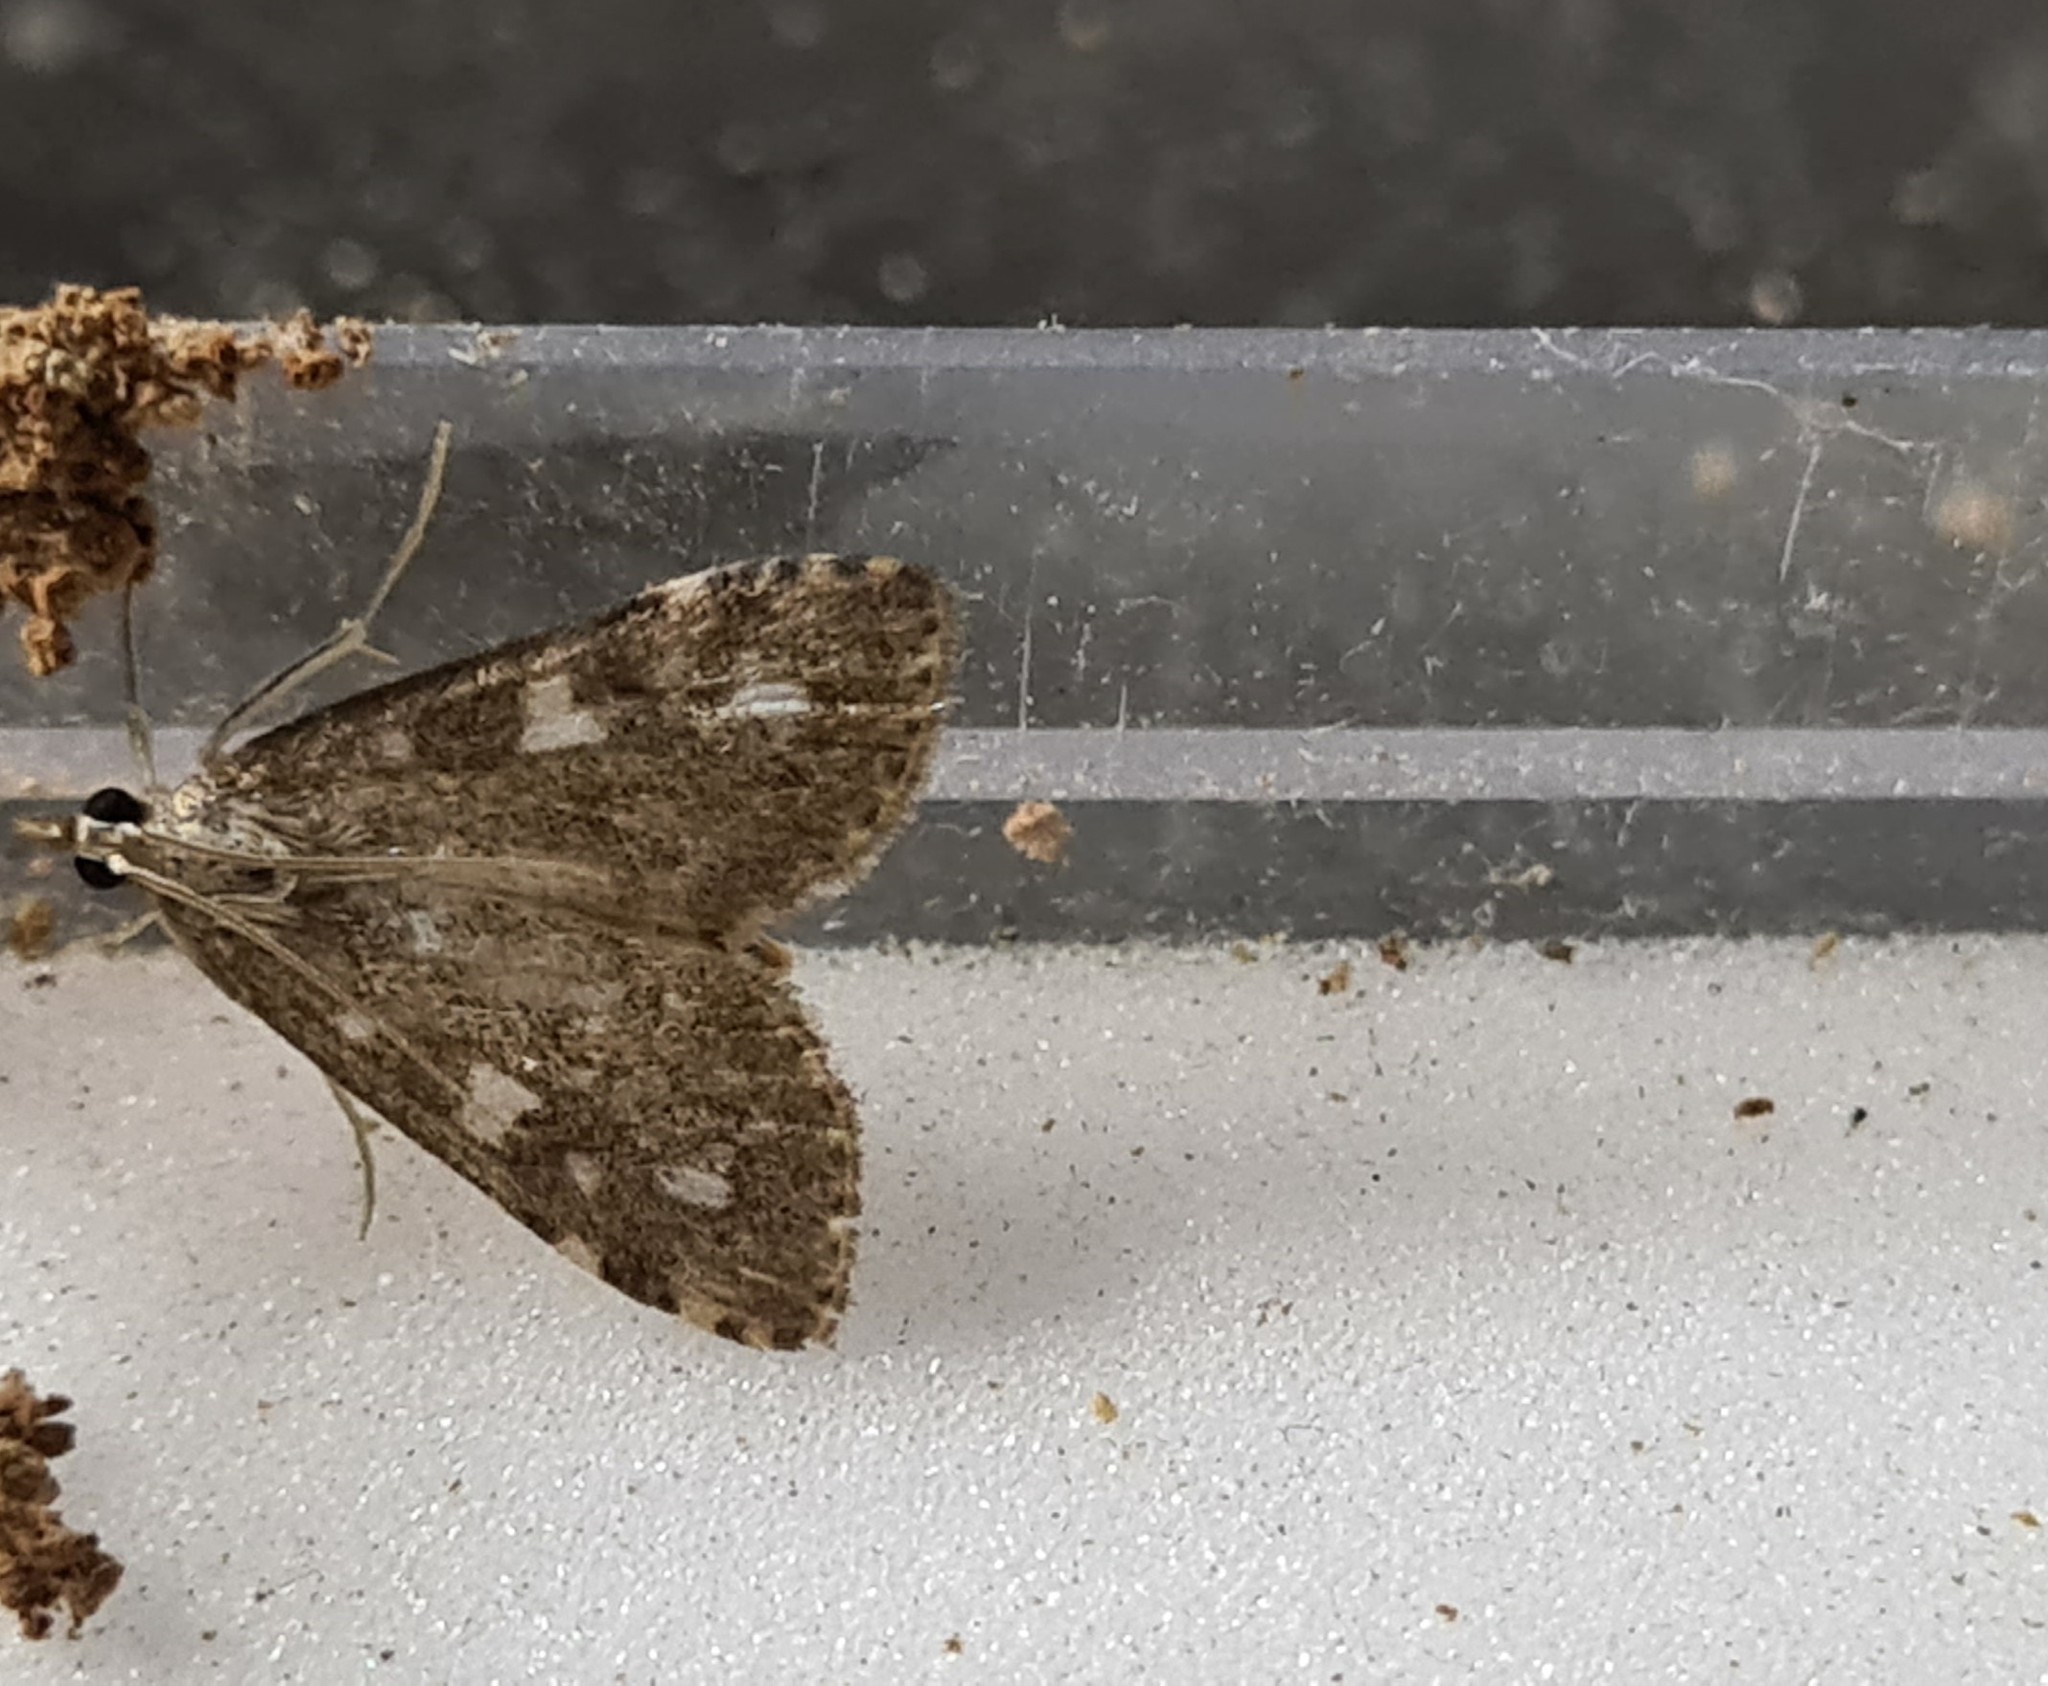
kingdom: Animalia
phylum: Arthropoda
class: Insecta
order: Lepidoptera
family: Crambidae
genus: Udea
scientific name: Udea olivalis
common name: Olive pearl
